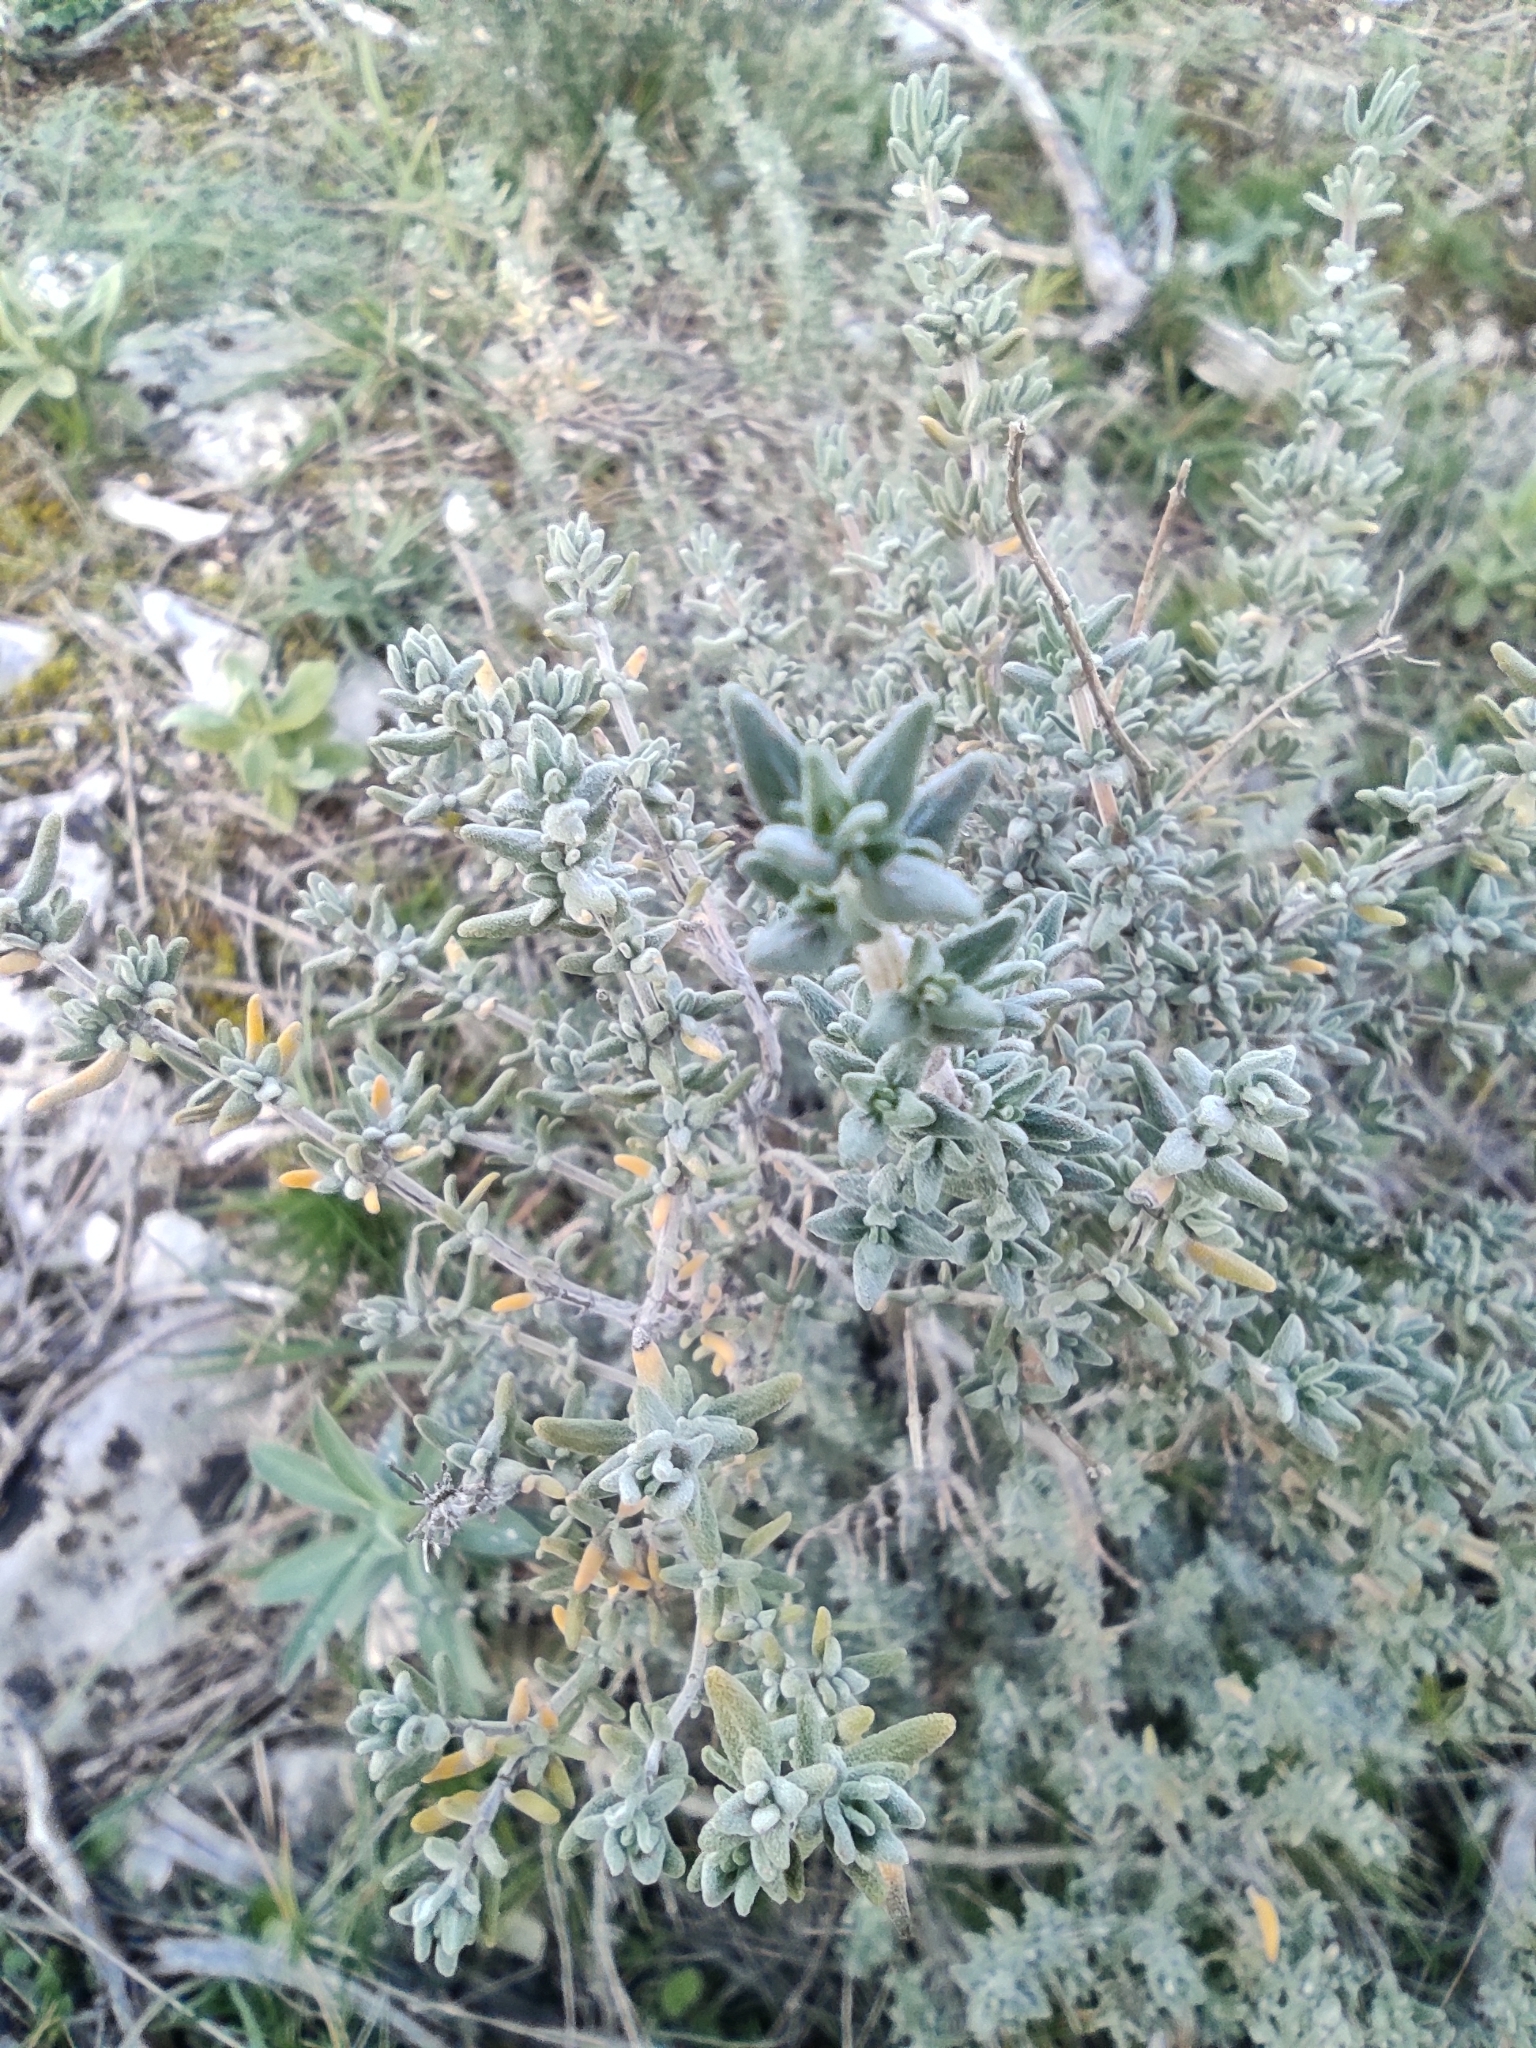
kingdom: Plantae
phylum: Tracheophyta
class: Magnoliopsida
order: Lamiales
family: Lamiaceae
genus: Thymus
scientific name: Thymus vulgaris
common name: Garden thyme
